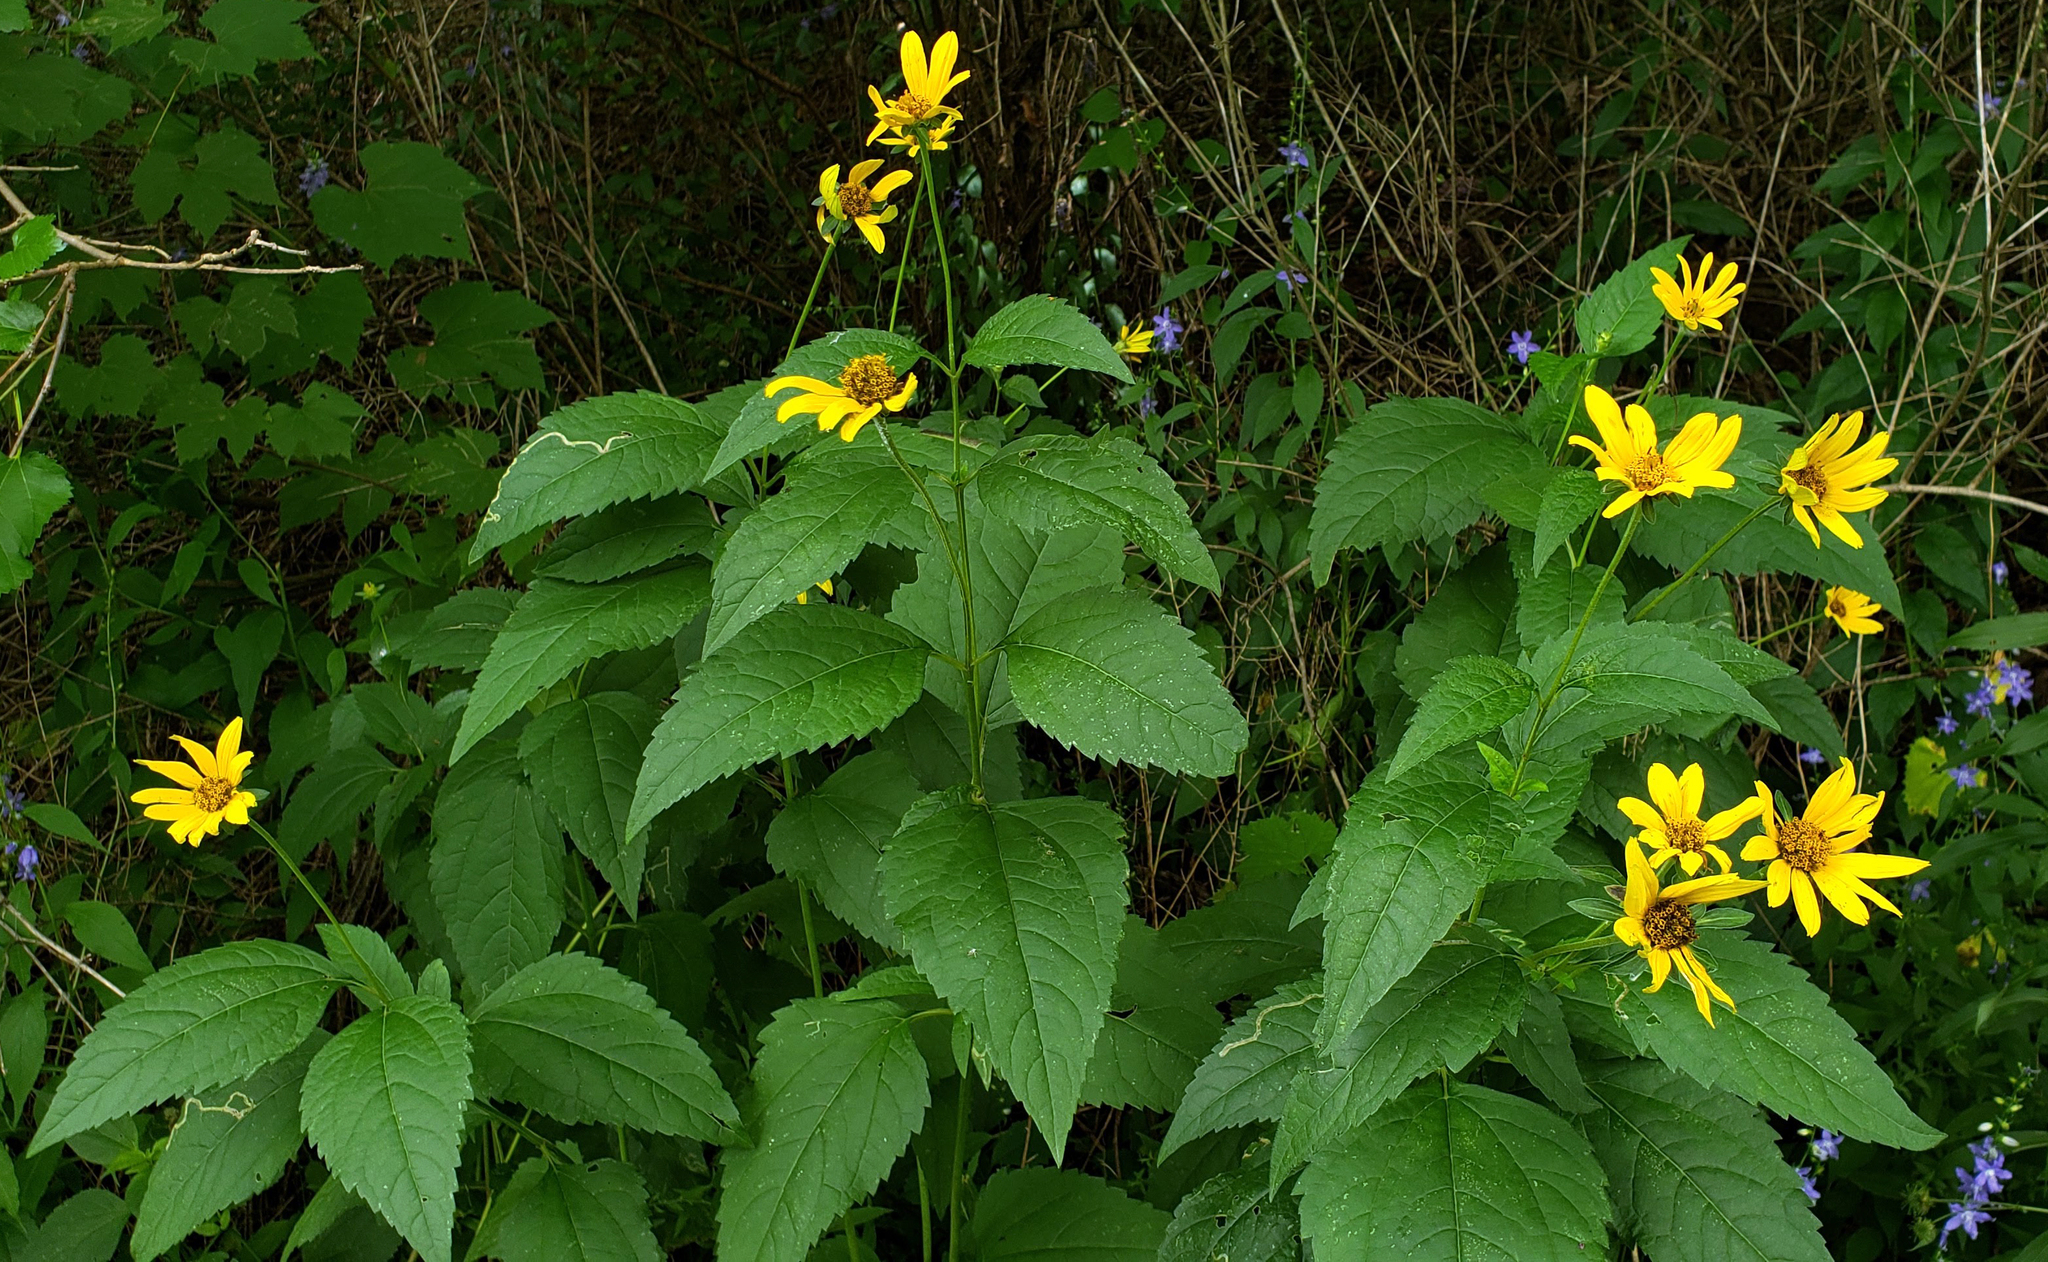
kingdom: Plantae
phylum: Tracheophyta
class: Magnoliopsida
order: Asterales
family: Asteraceae
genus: Heliopsis
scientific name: Heliopsis helianthoides
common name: False sunflower
